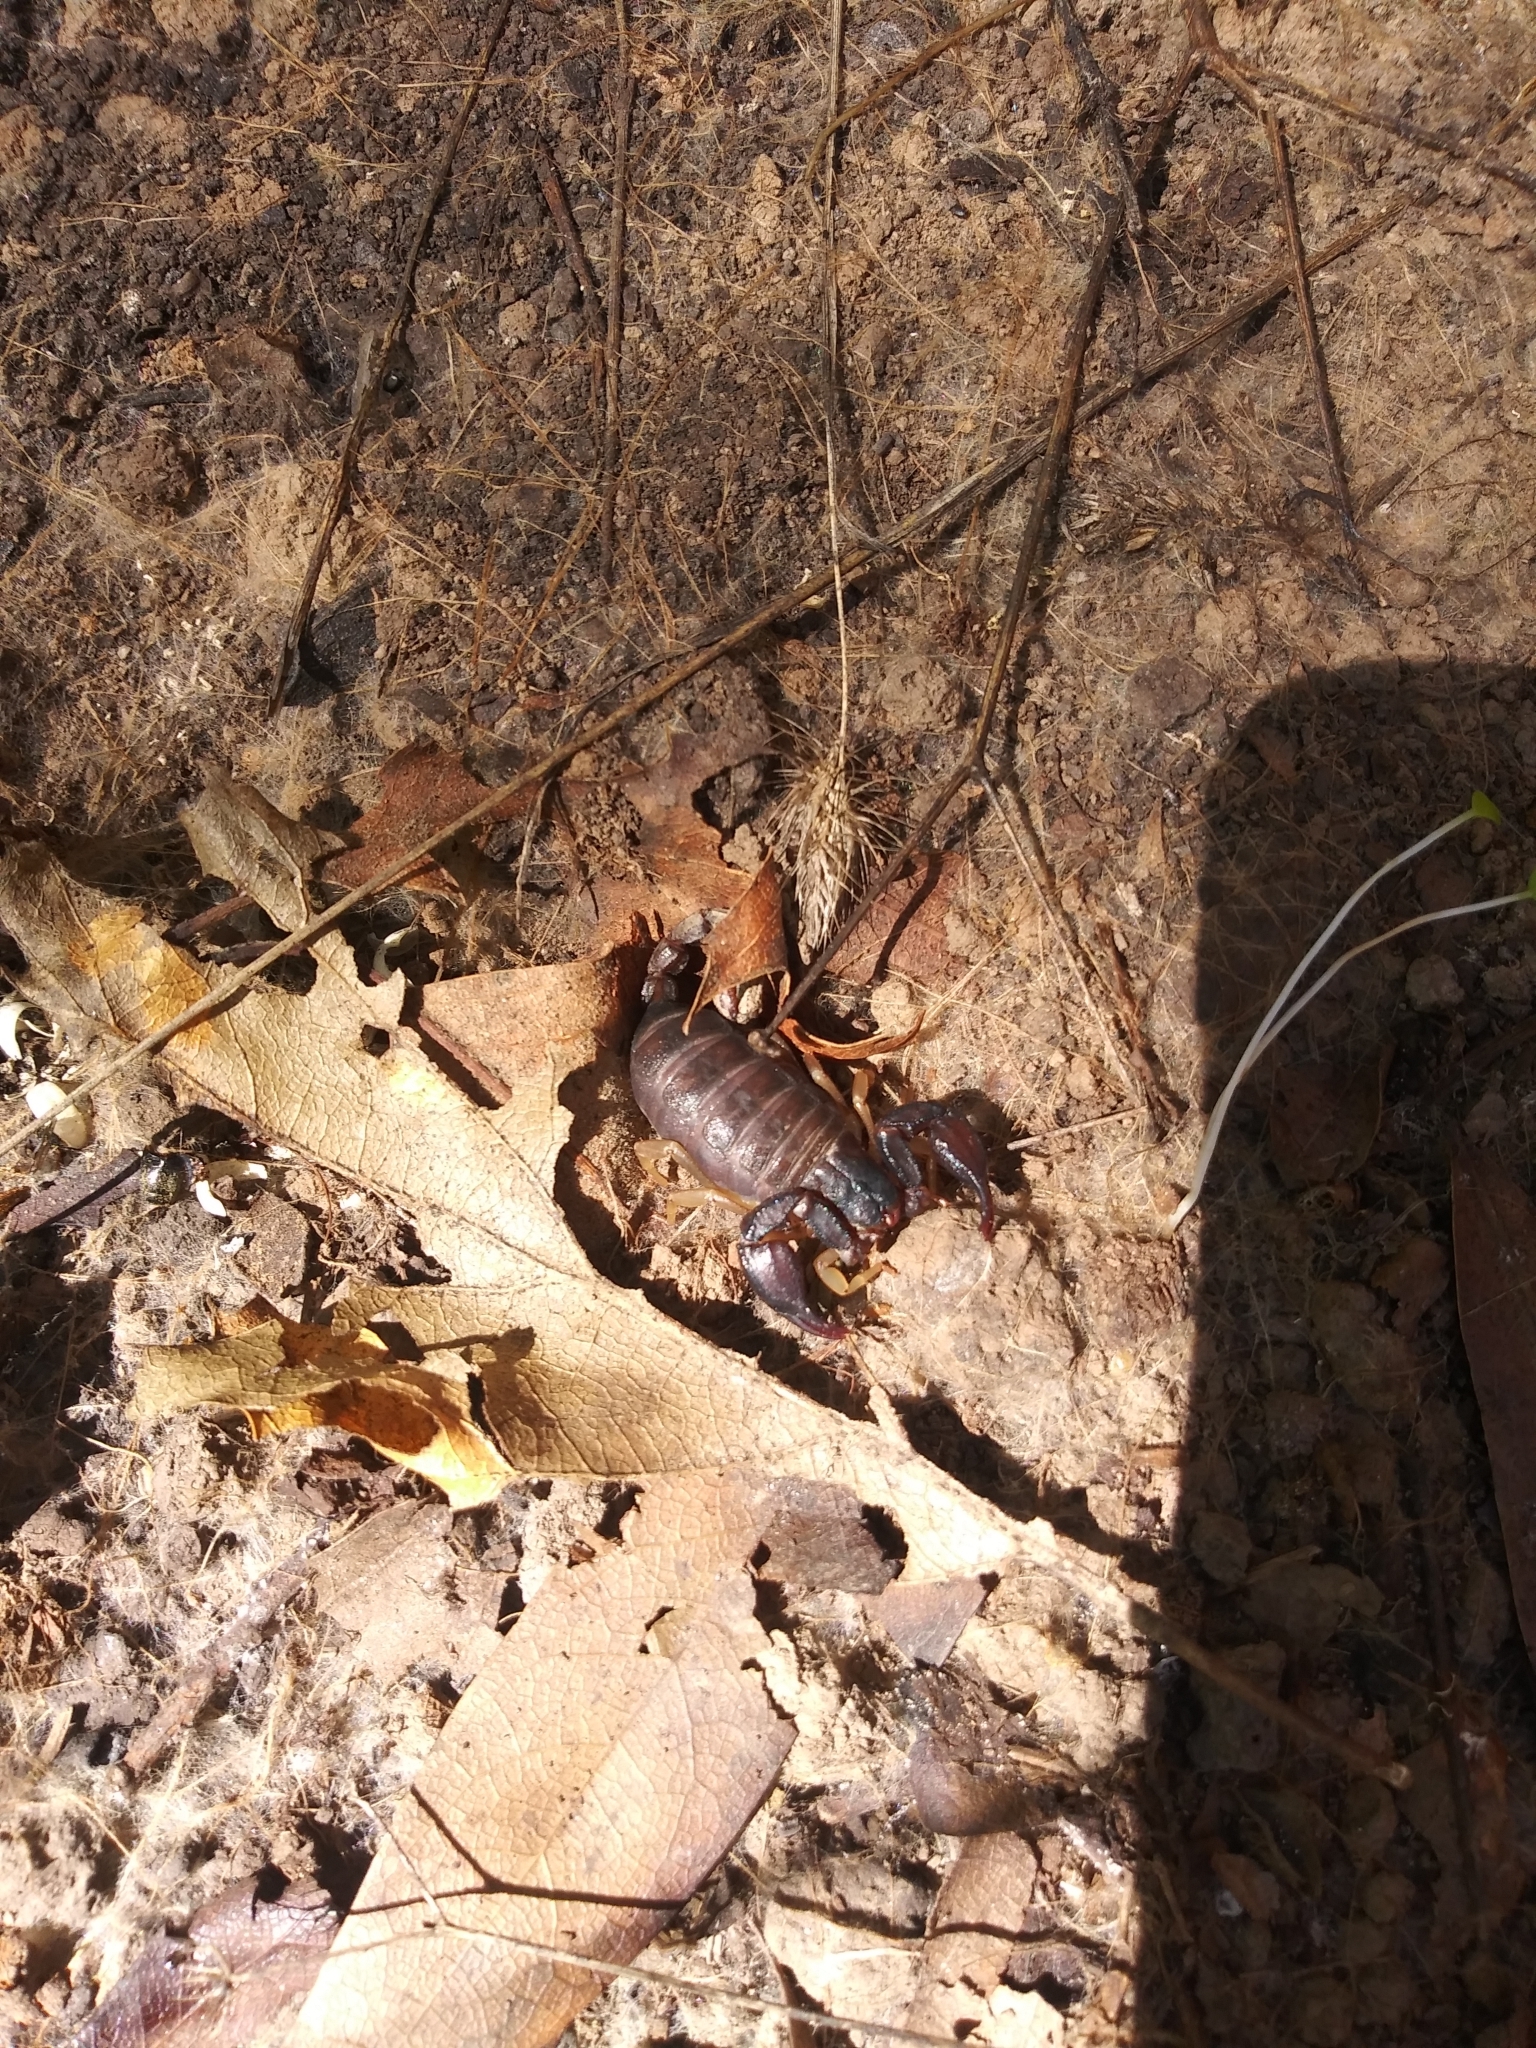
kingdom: Animalia
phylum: Arthropoda
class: Arachnida
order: Scorpiones
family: Chactidae
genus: Uroctonus
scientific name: Uroctonus mordax
